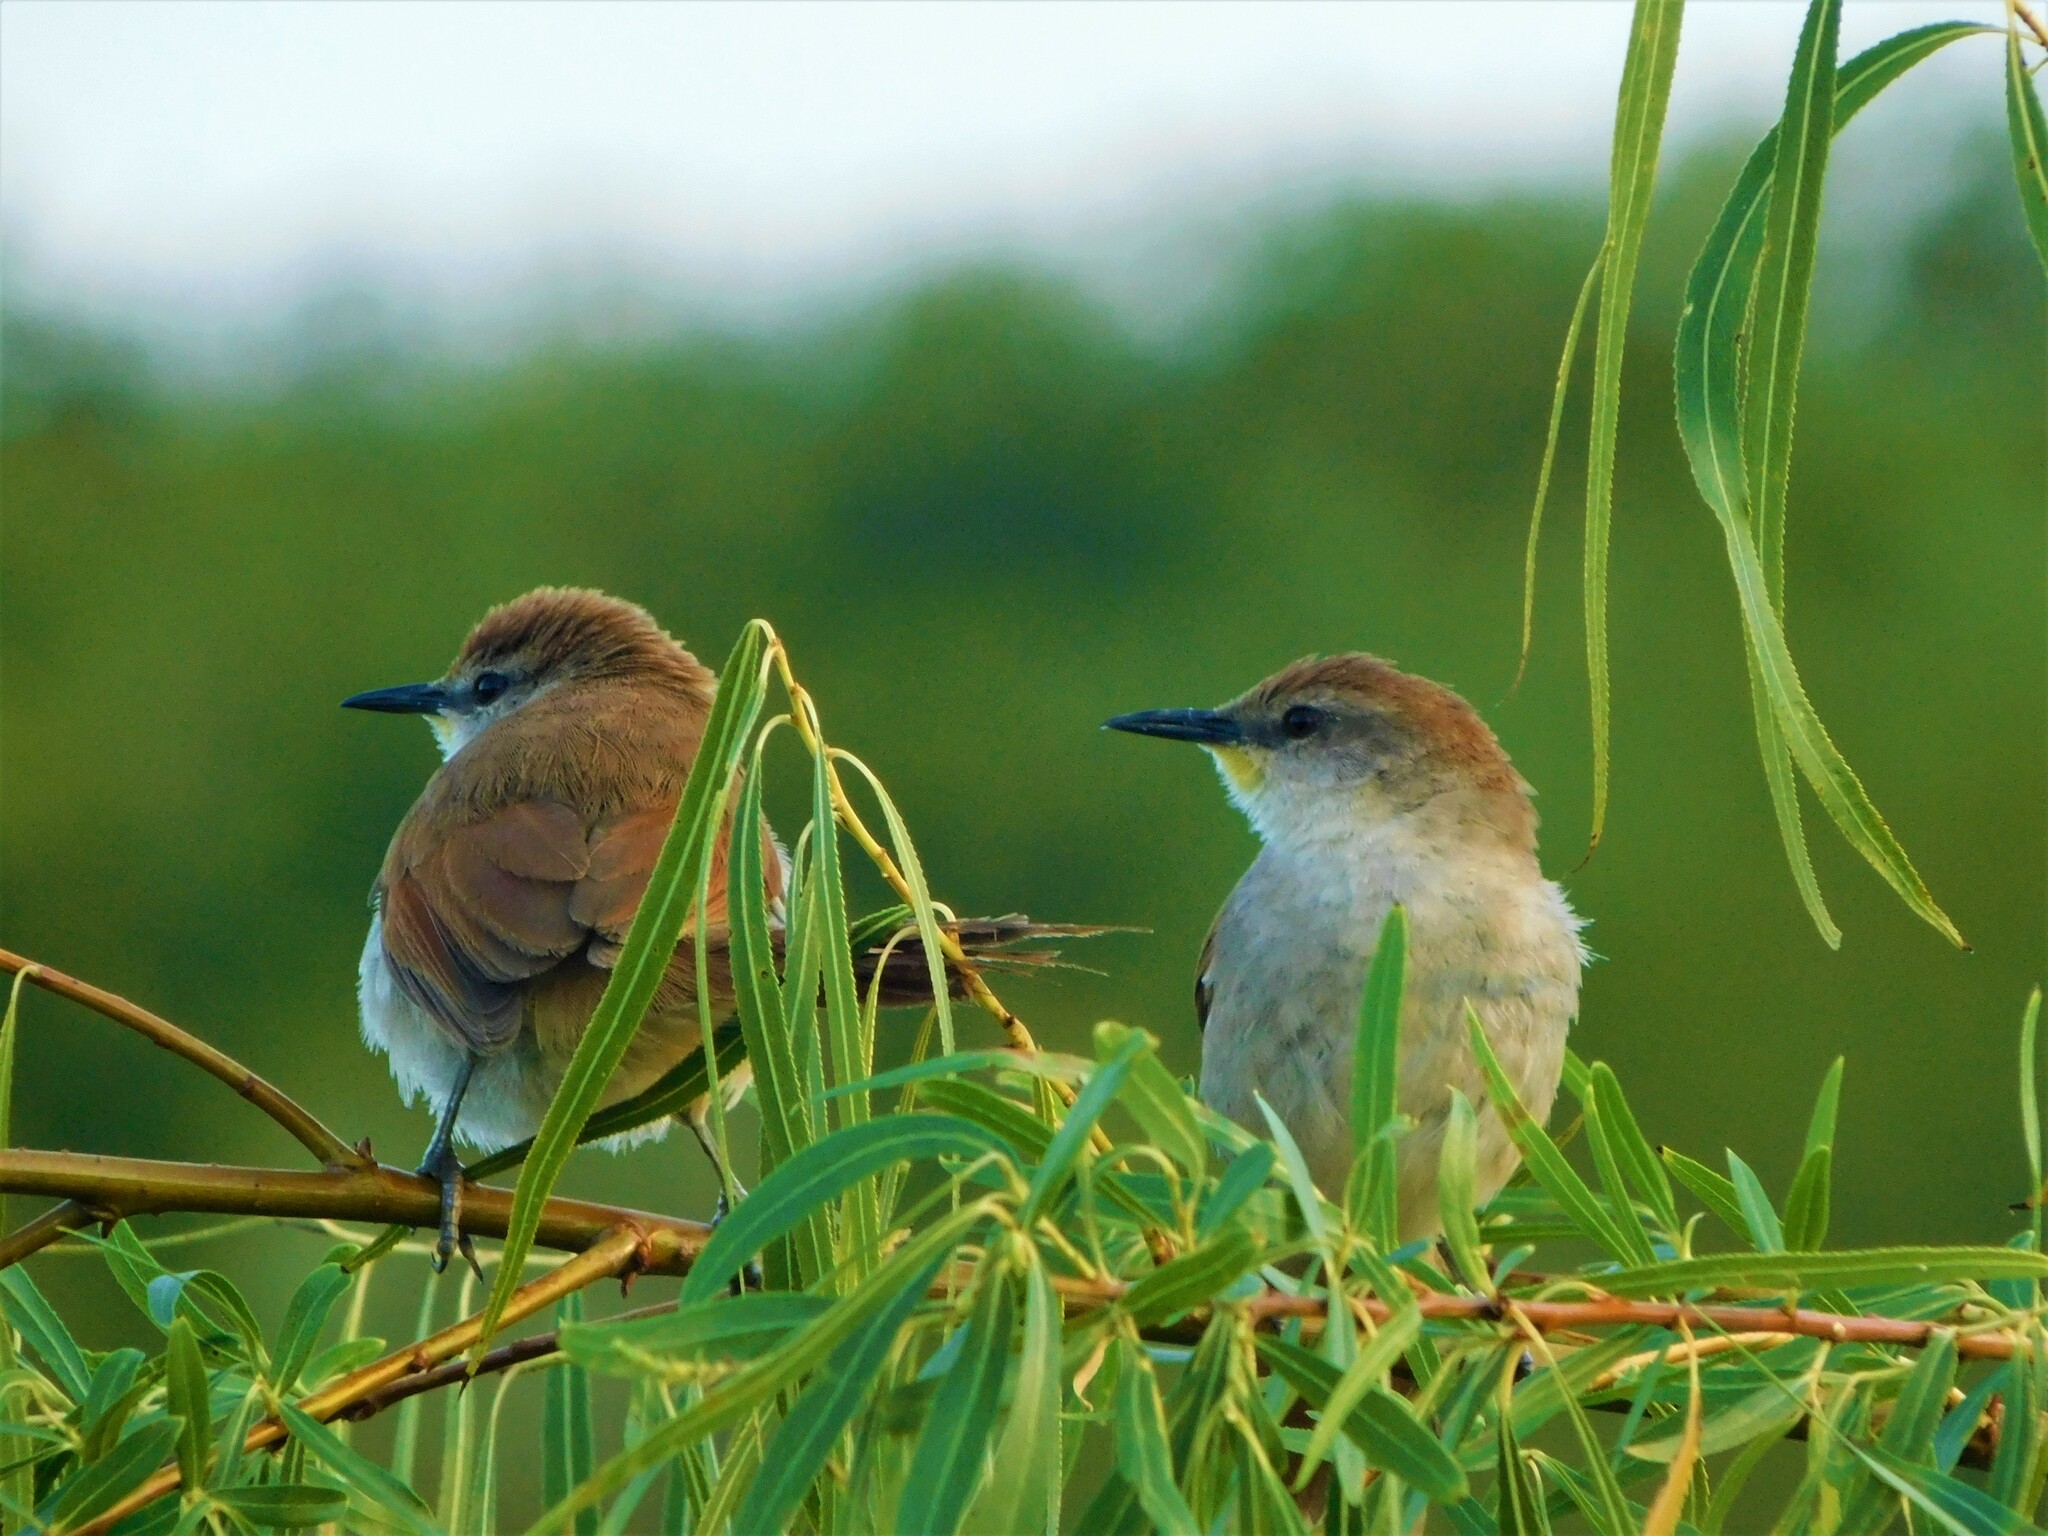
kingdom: Animalia
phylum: Chordata
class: Aves
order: Passeriformes
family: Furnariidae
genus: Certhiaxis
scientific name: Certhiaxis cinnamomeus
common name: Yellow-chinned spinetail
